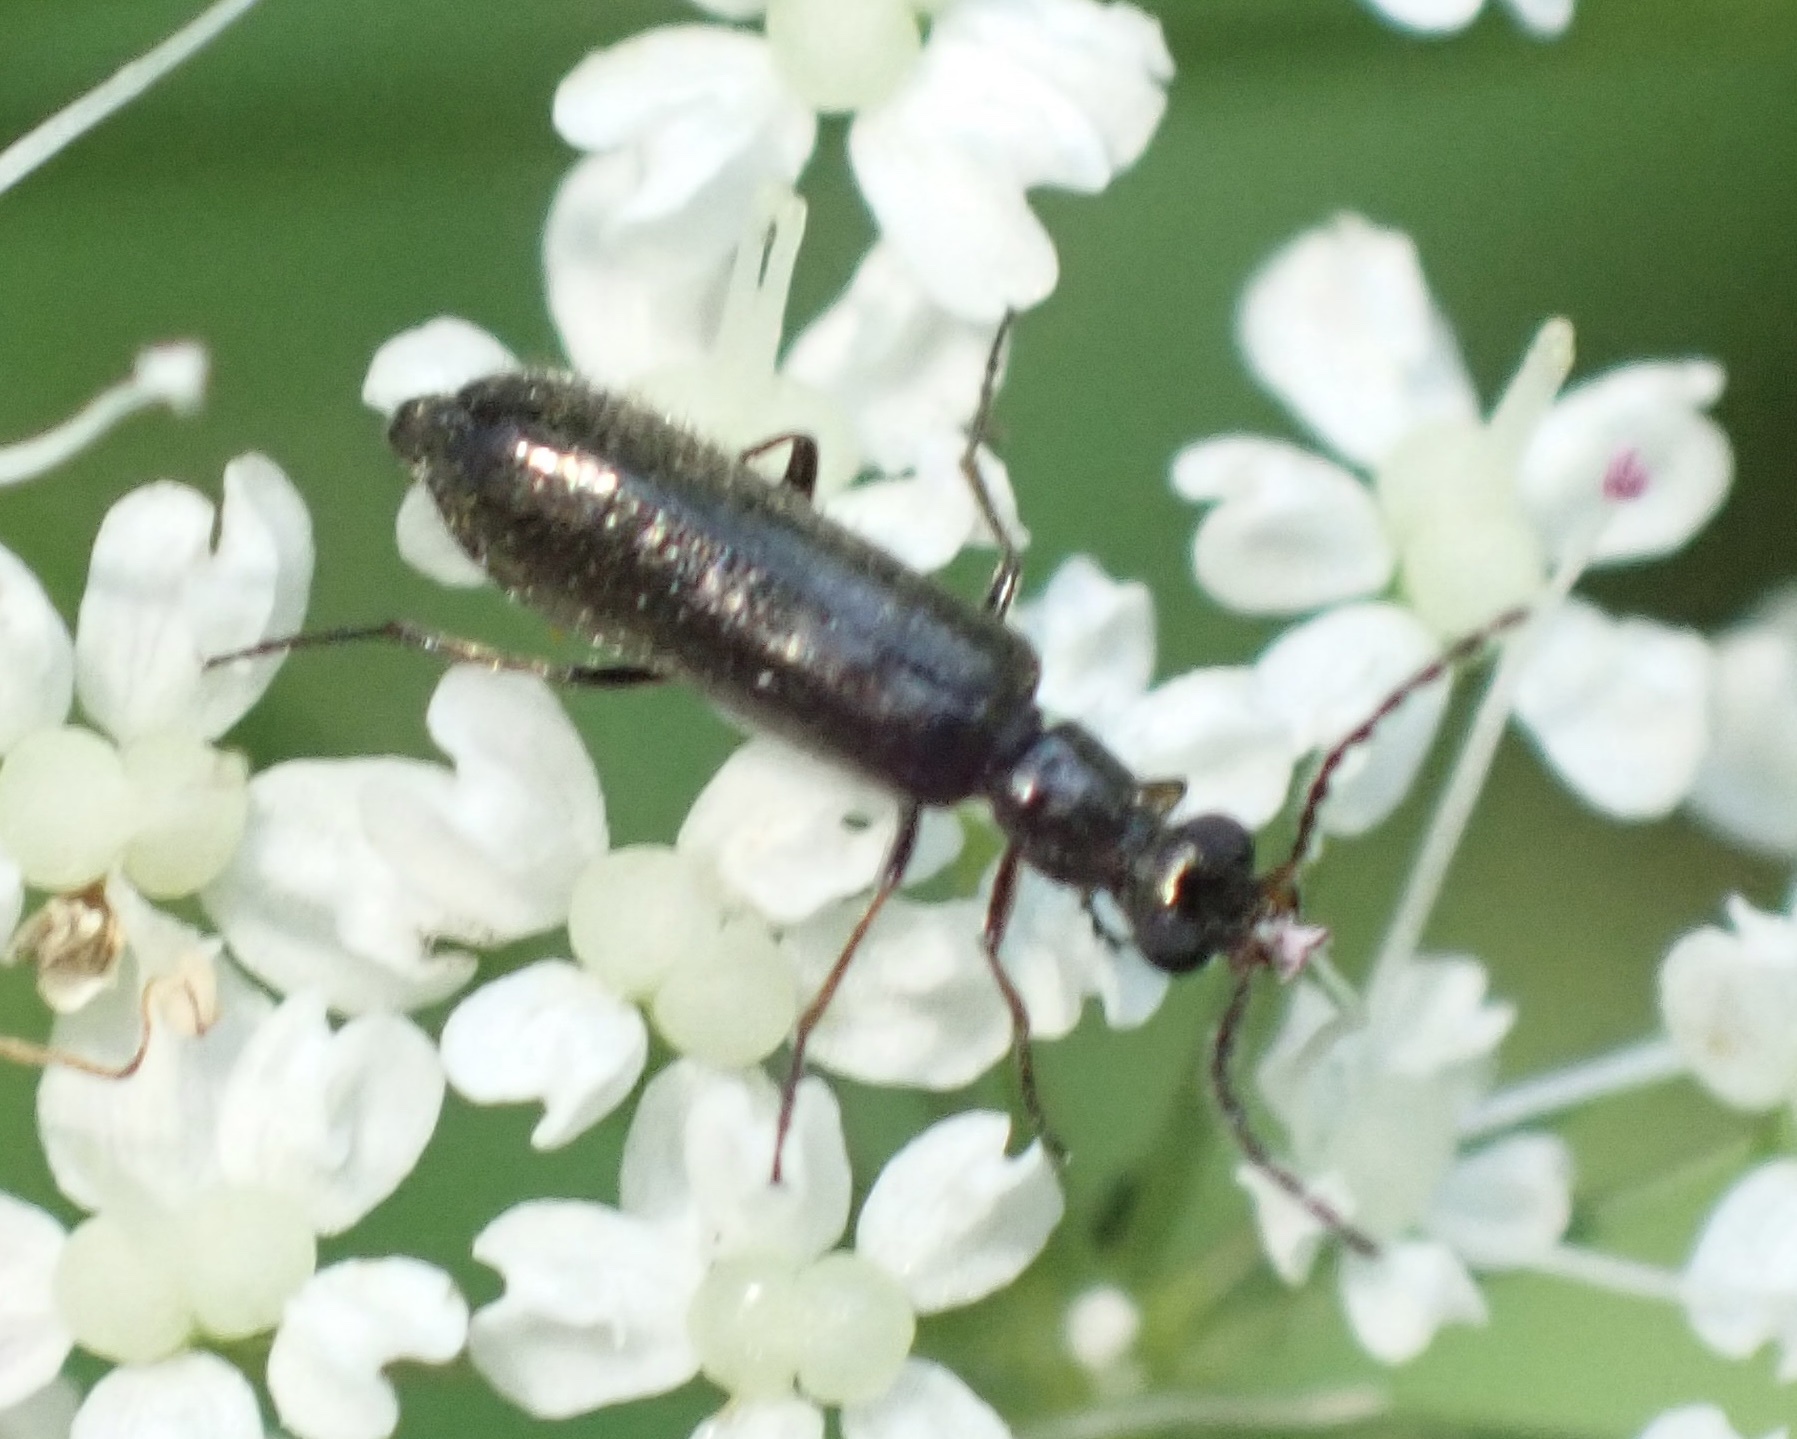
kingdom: Animalia
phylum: Arthropoda
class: Insecta
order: Coleoptera
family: Melyridae
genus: Dasytes
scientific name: Dasytes plumbeus
